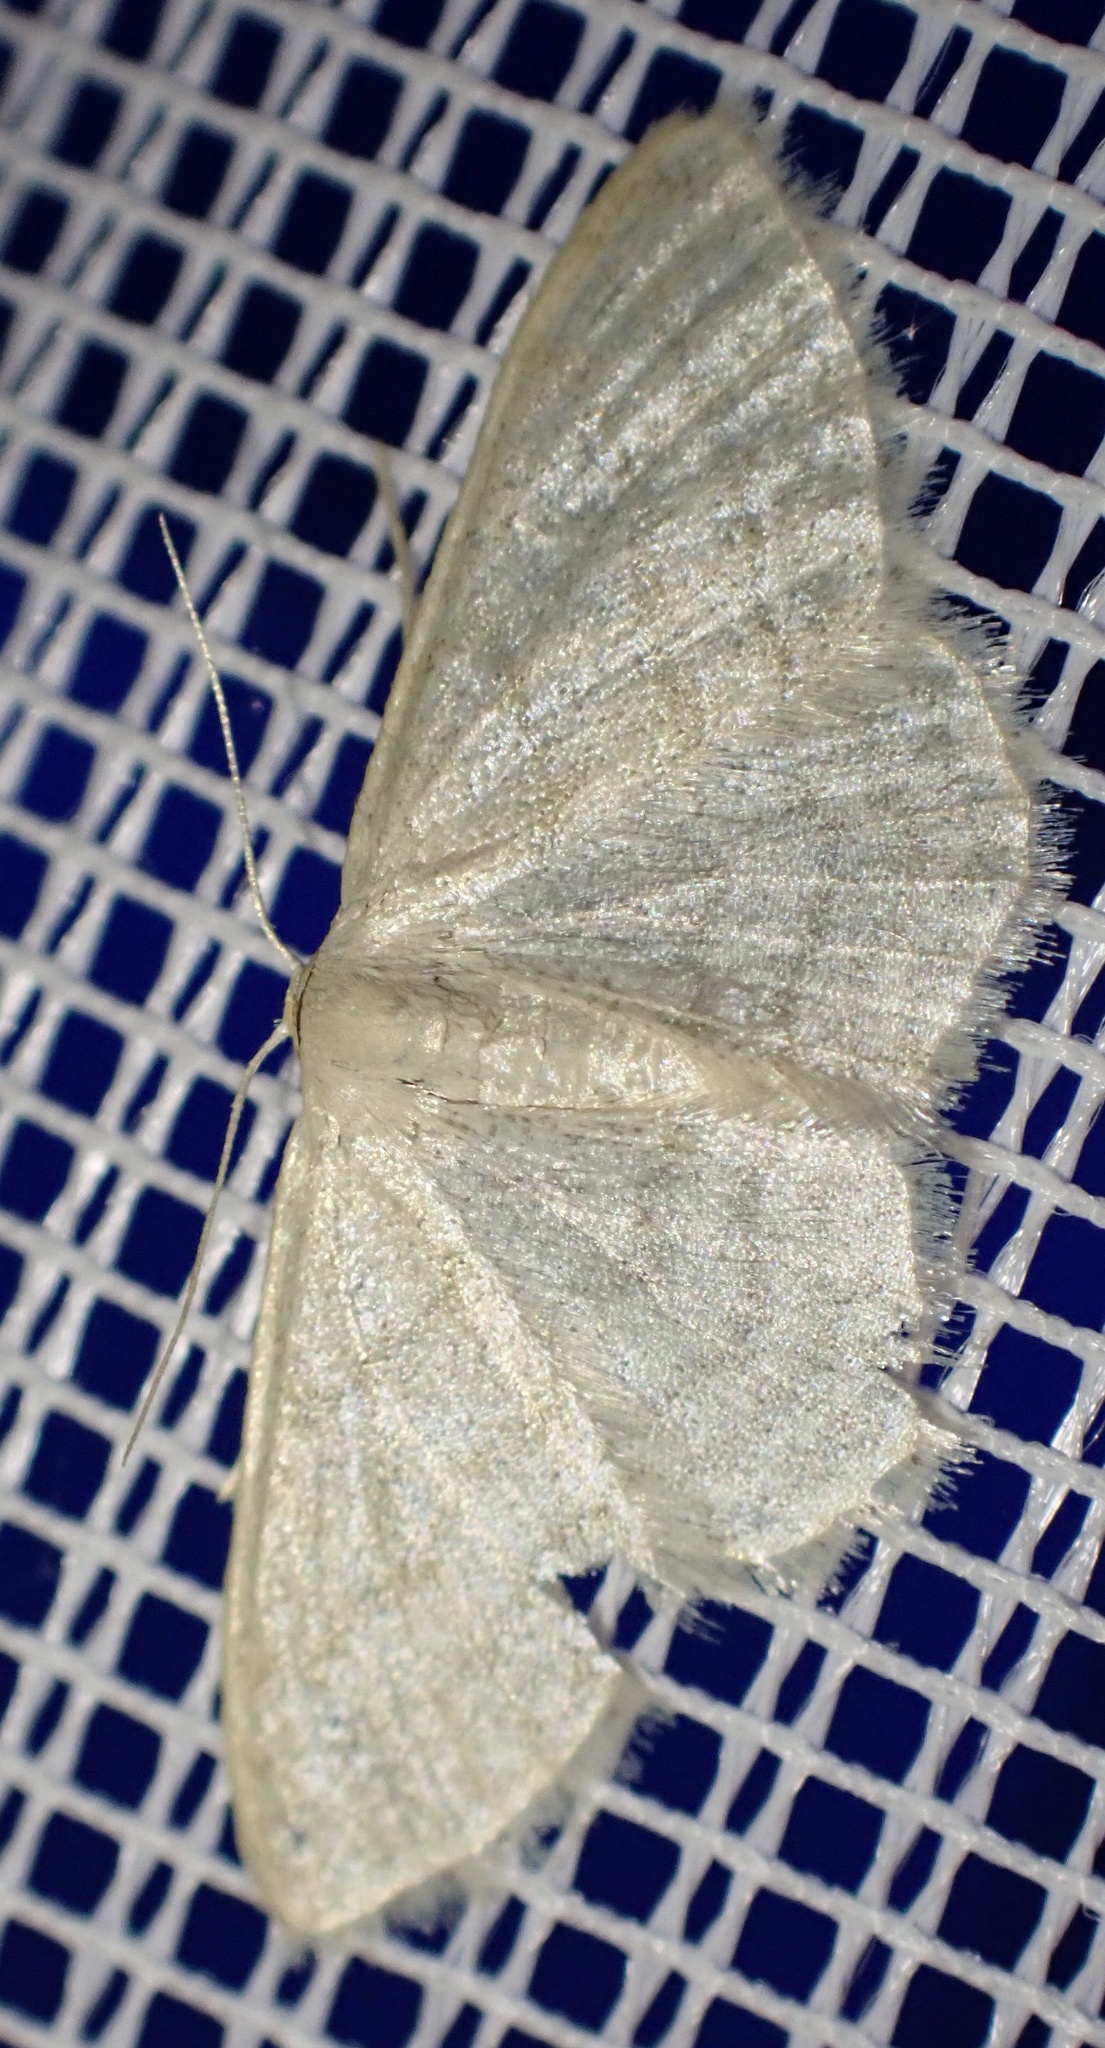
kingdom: Animalia
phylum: Arthropoda
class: Insecta
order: Lepidoptera
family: Geometridae
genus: Idaea
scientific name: Idaea subsericeata
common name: Satin wave
